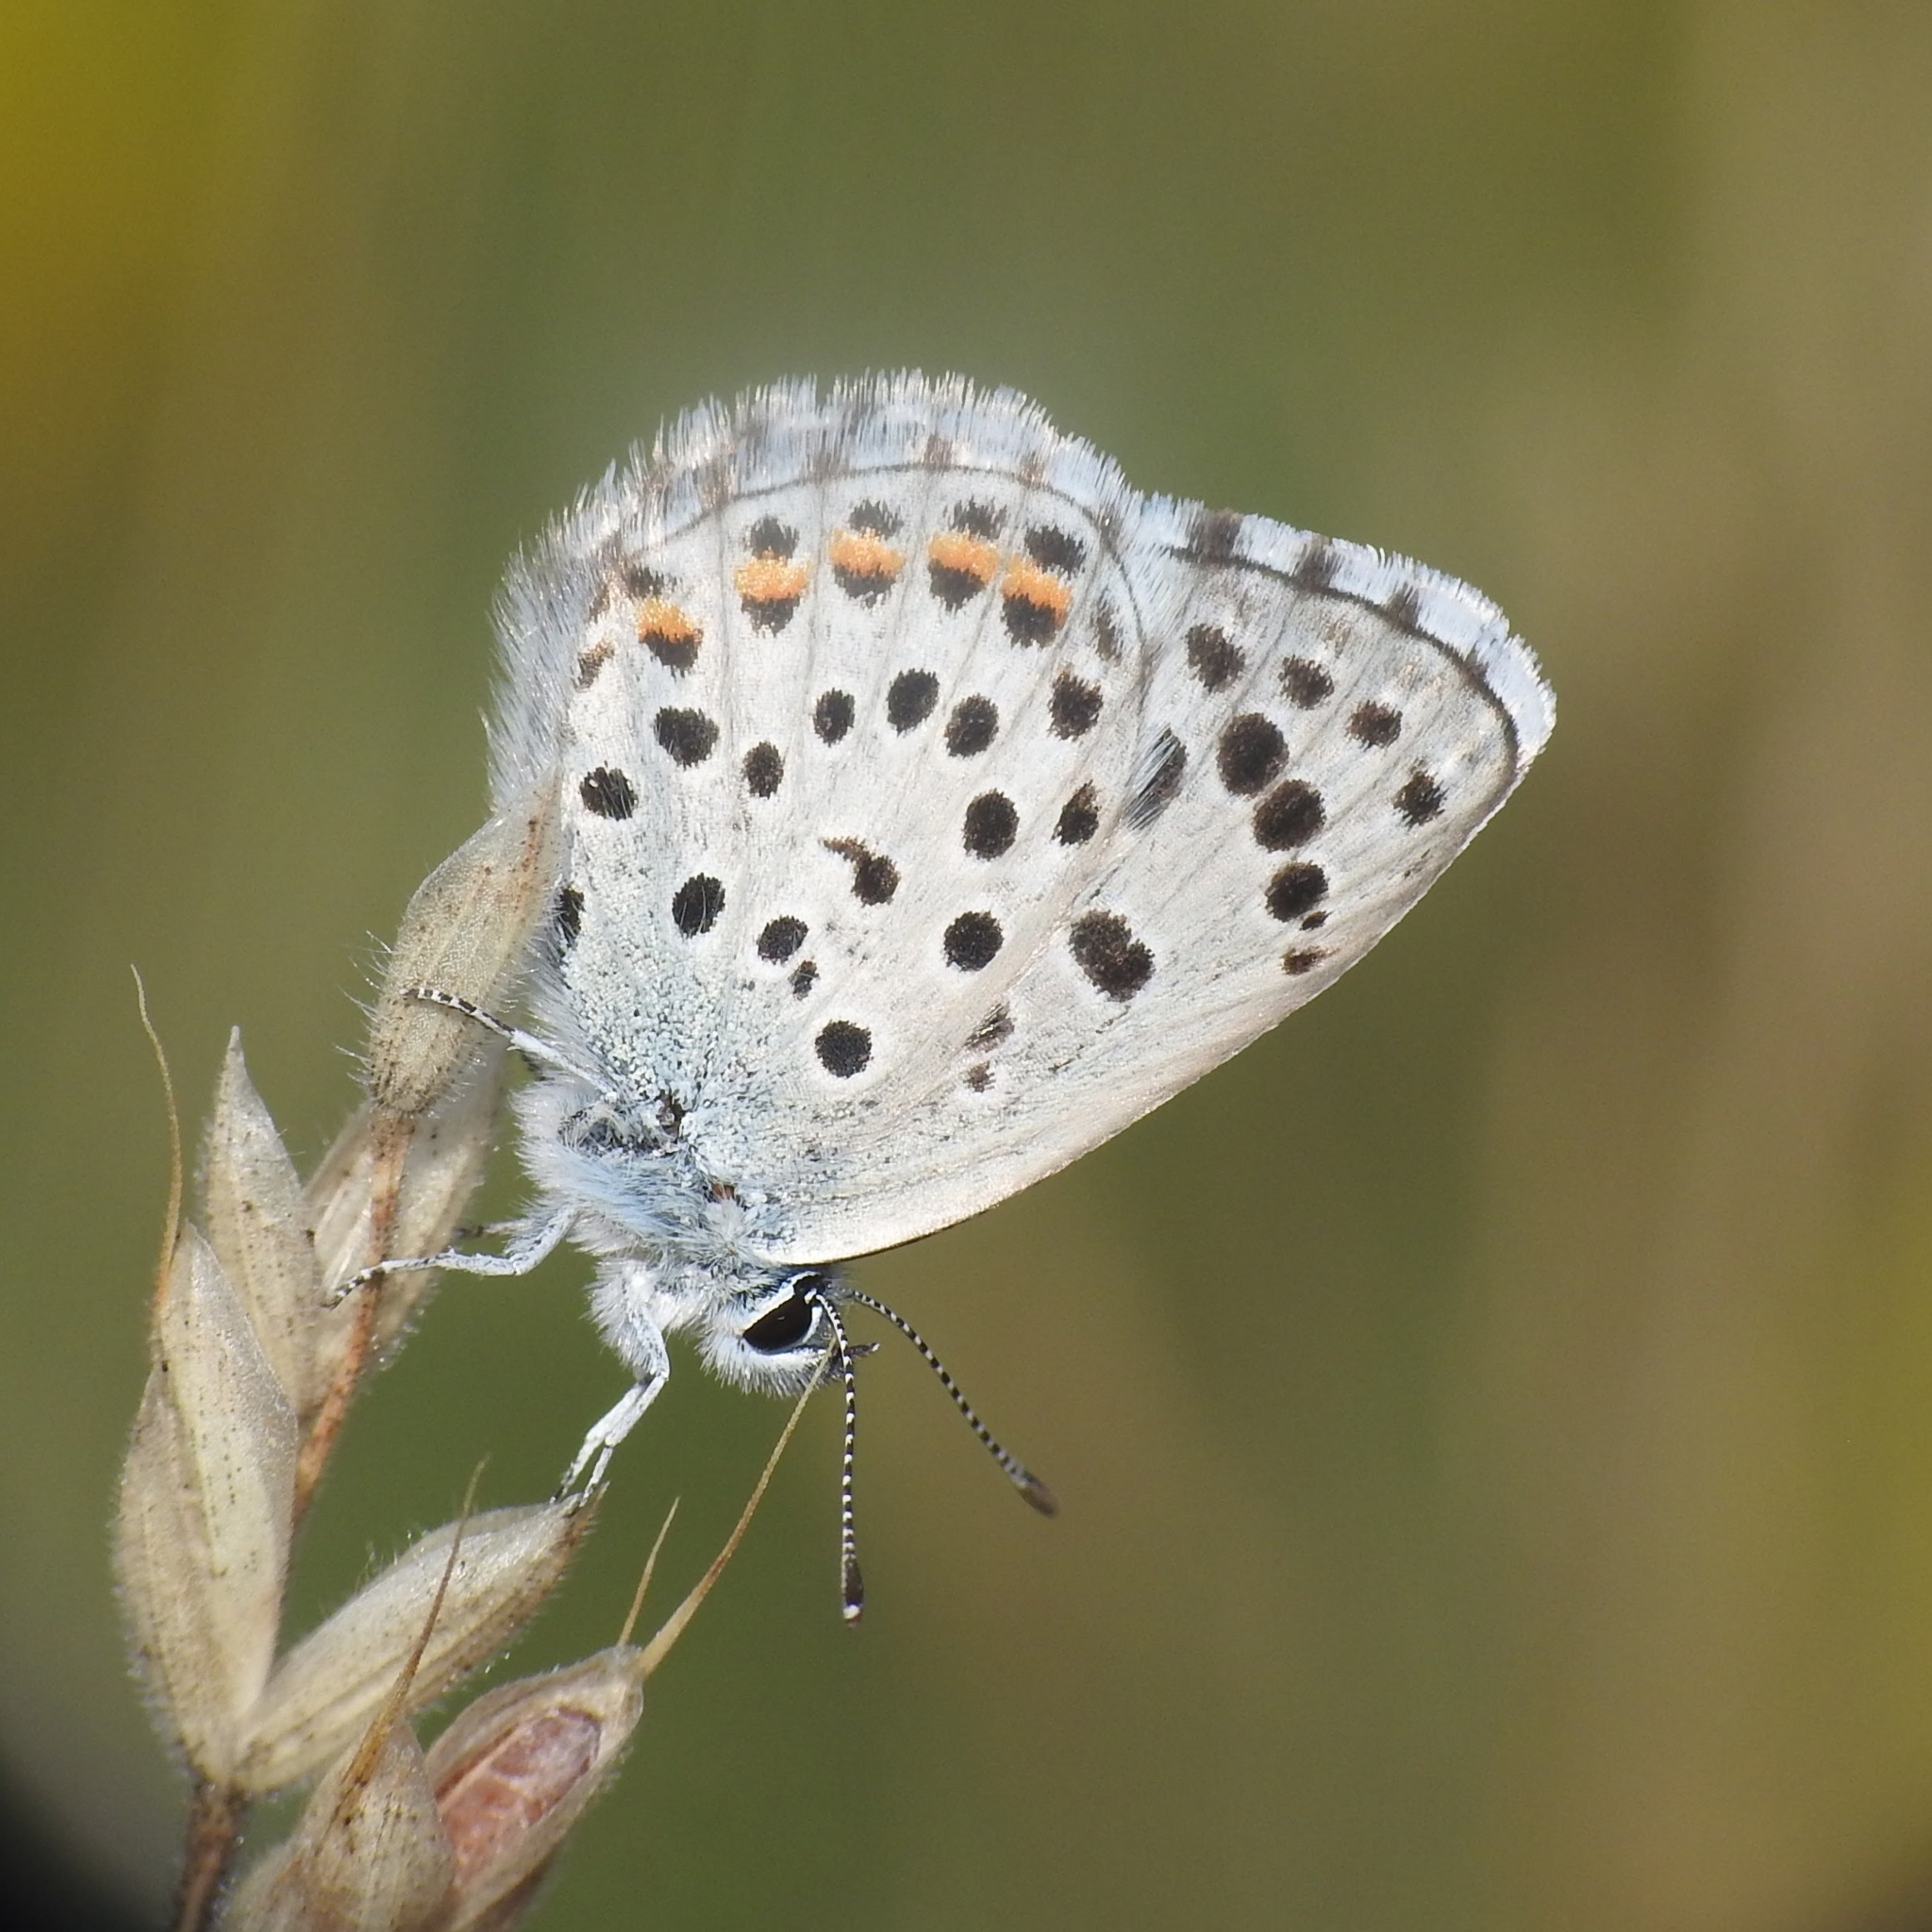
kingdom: Animalia
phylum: Arthropoda
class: Insecta
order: Lepidoptera
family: Lycaenidae
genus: Pseudophilotes
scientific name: Pseudophilotes baton
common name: Baton blue
